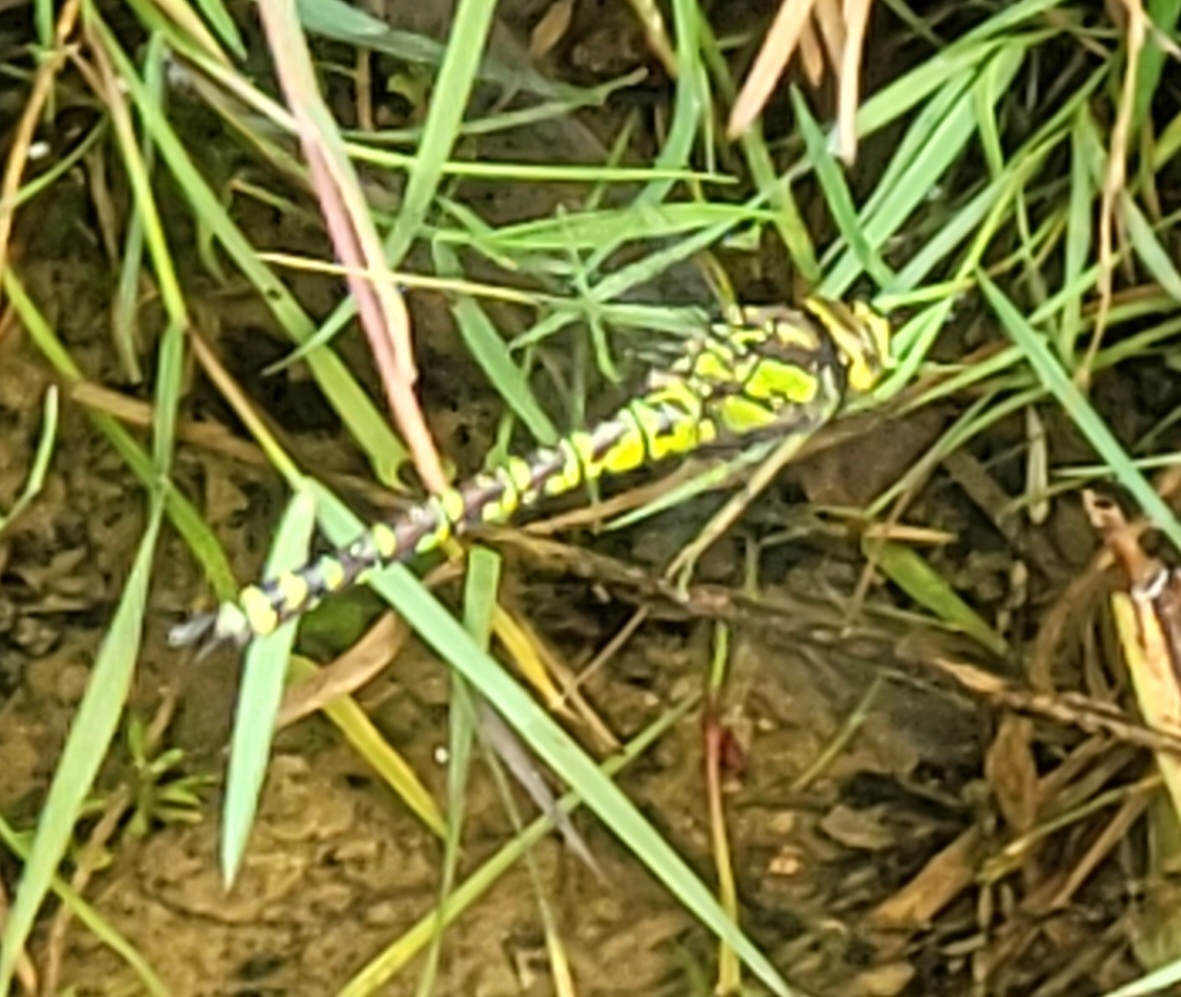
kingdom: Animalia
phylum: Arthropoda
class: Insecta
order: Odonata
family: Aeshnidae
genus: Aeshna
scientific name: Aeshna cyanea
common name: Southern hawker
